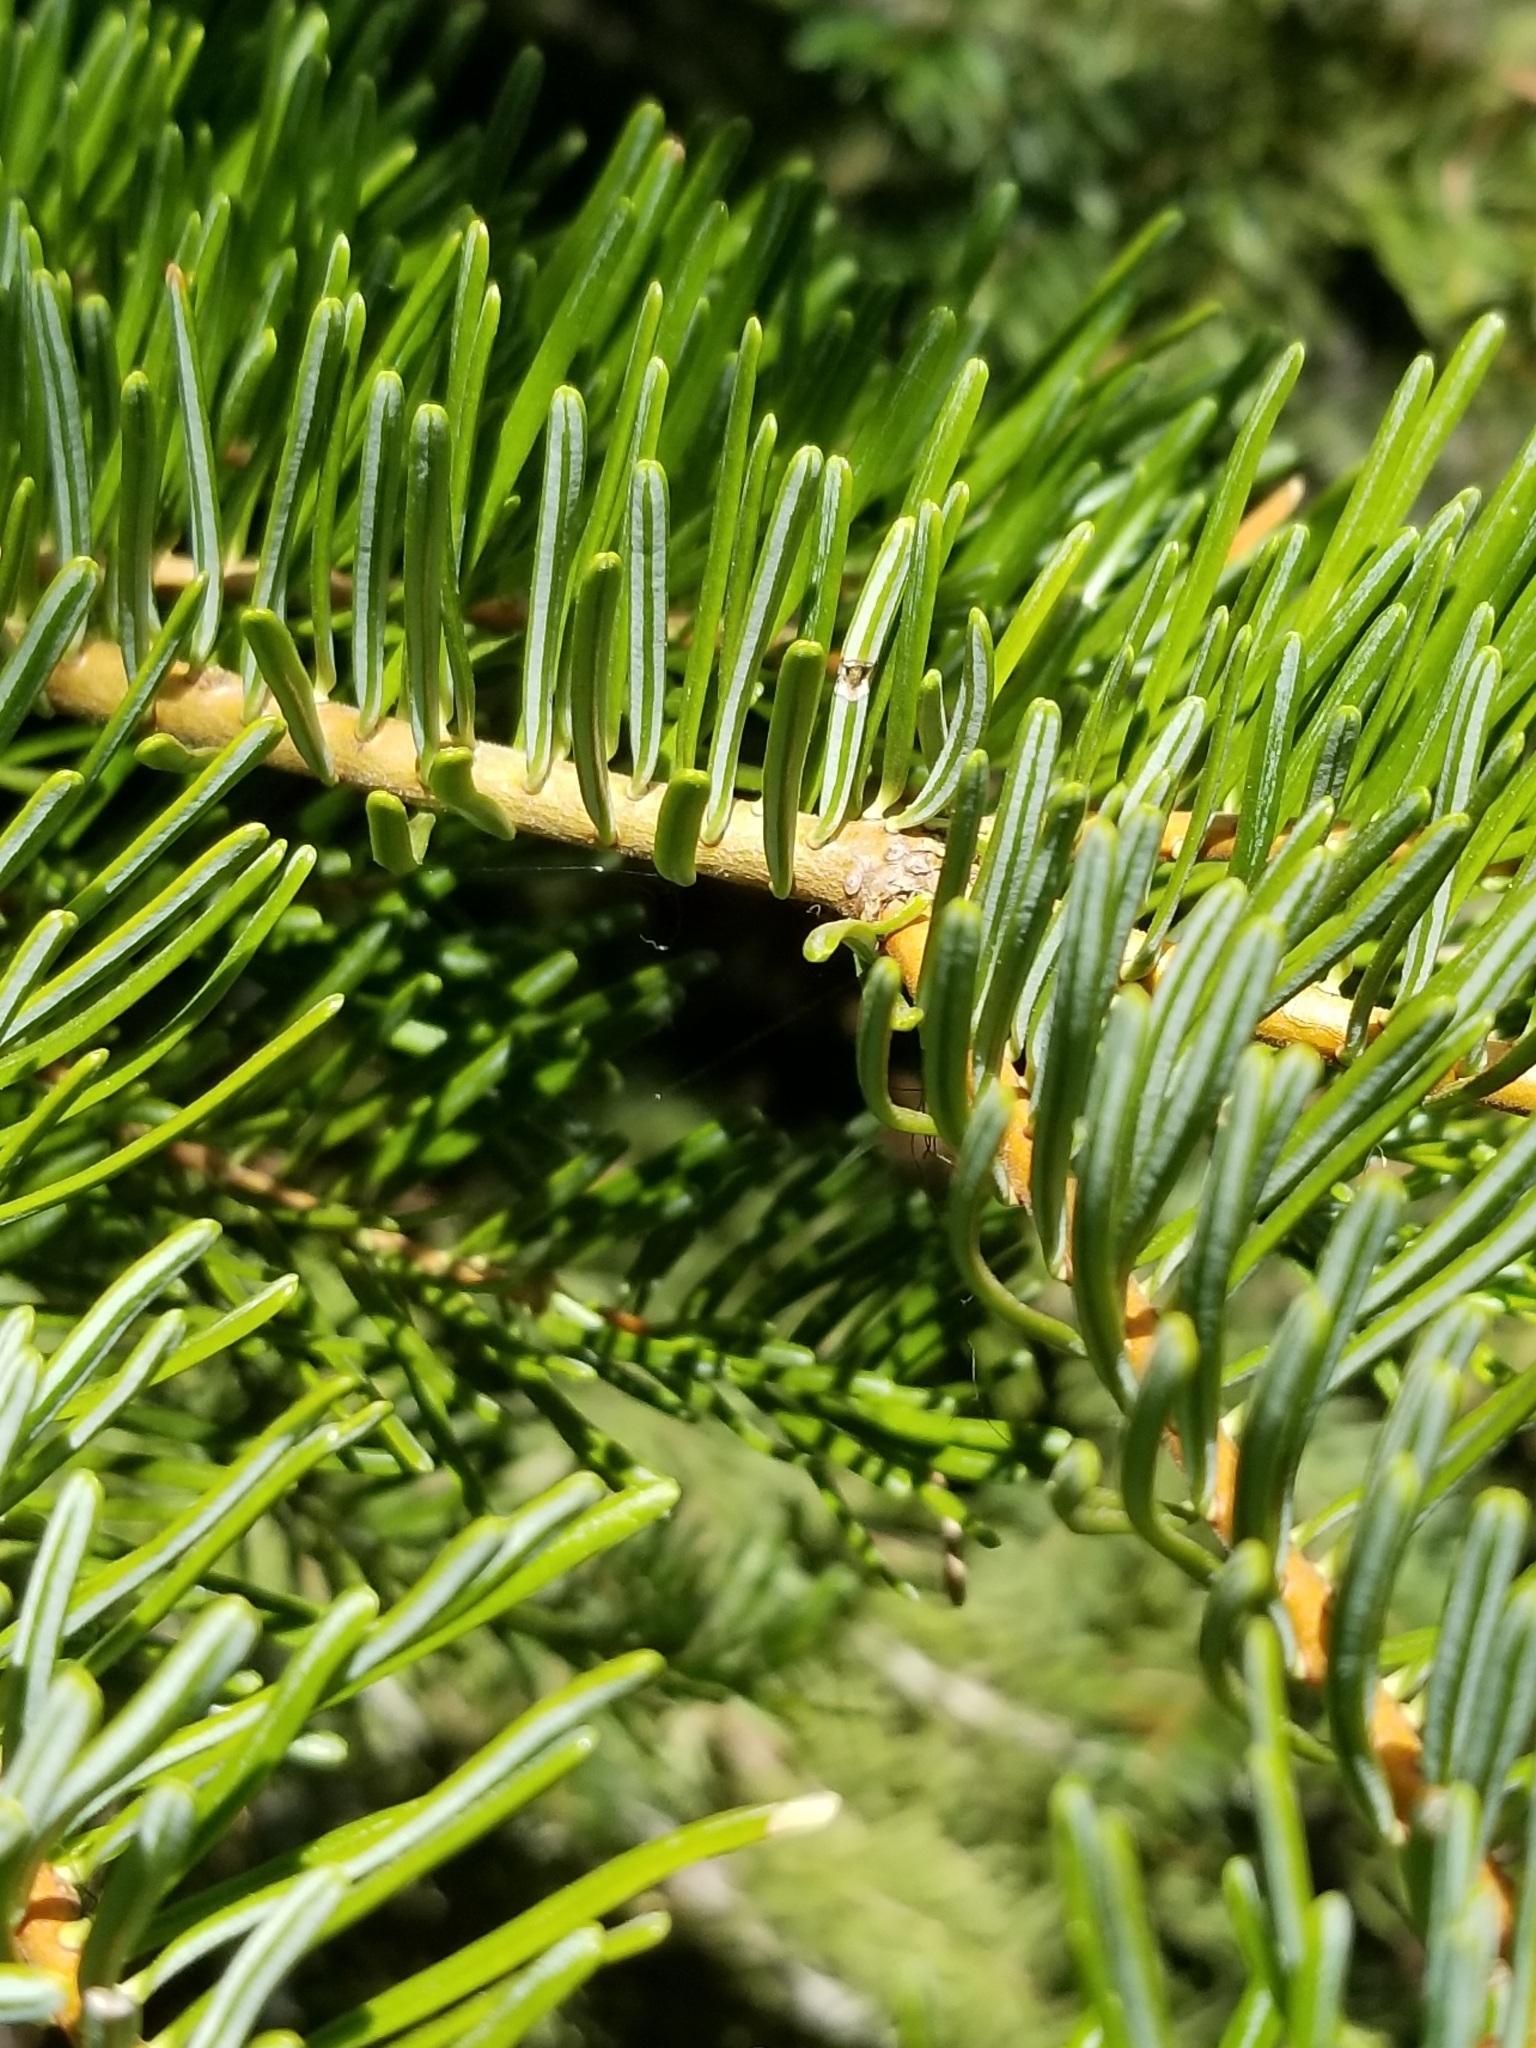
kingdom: Plantae
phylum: Tracheophyta
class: Pinopsida
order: Pinales
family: Pinaceae
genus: Abies
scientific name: Abies concolor
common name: Colorado fir
